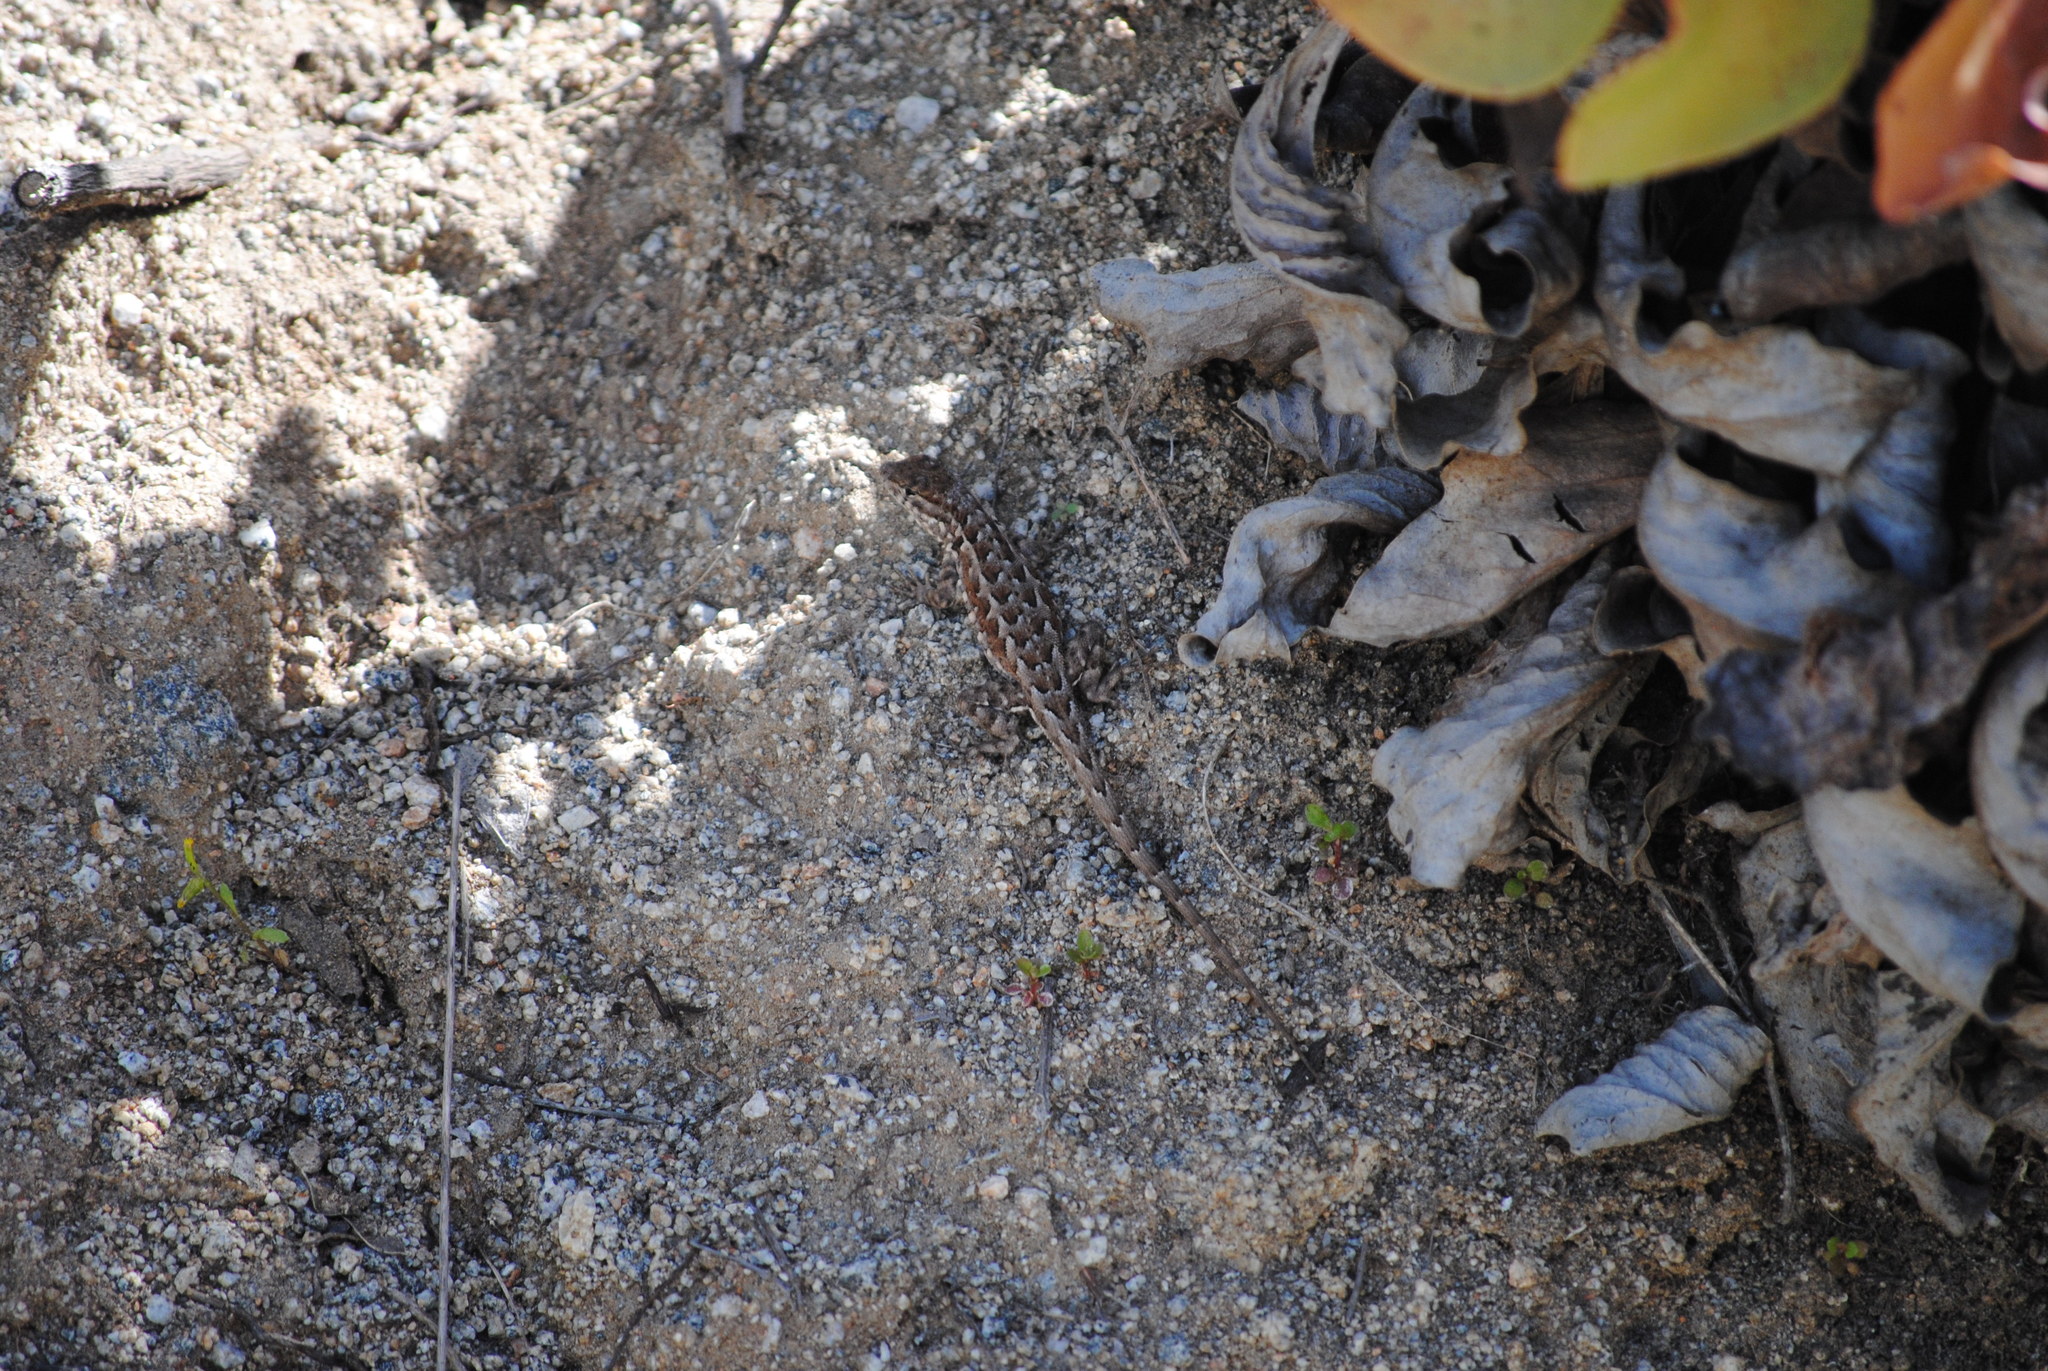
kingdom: Animalia
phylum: Chordata
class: Squamata
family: Phrynosomatidae
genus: Uta
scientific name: Uta stansburiana
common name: Side-blotched lizard
